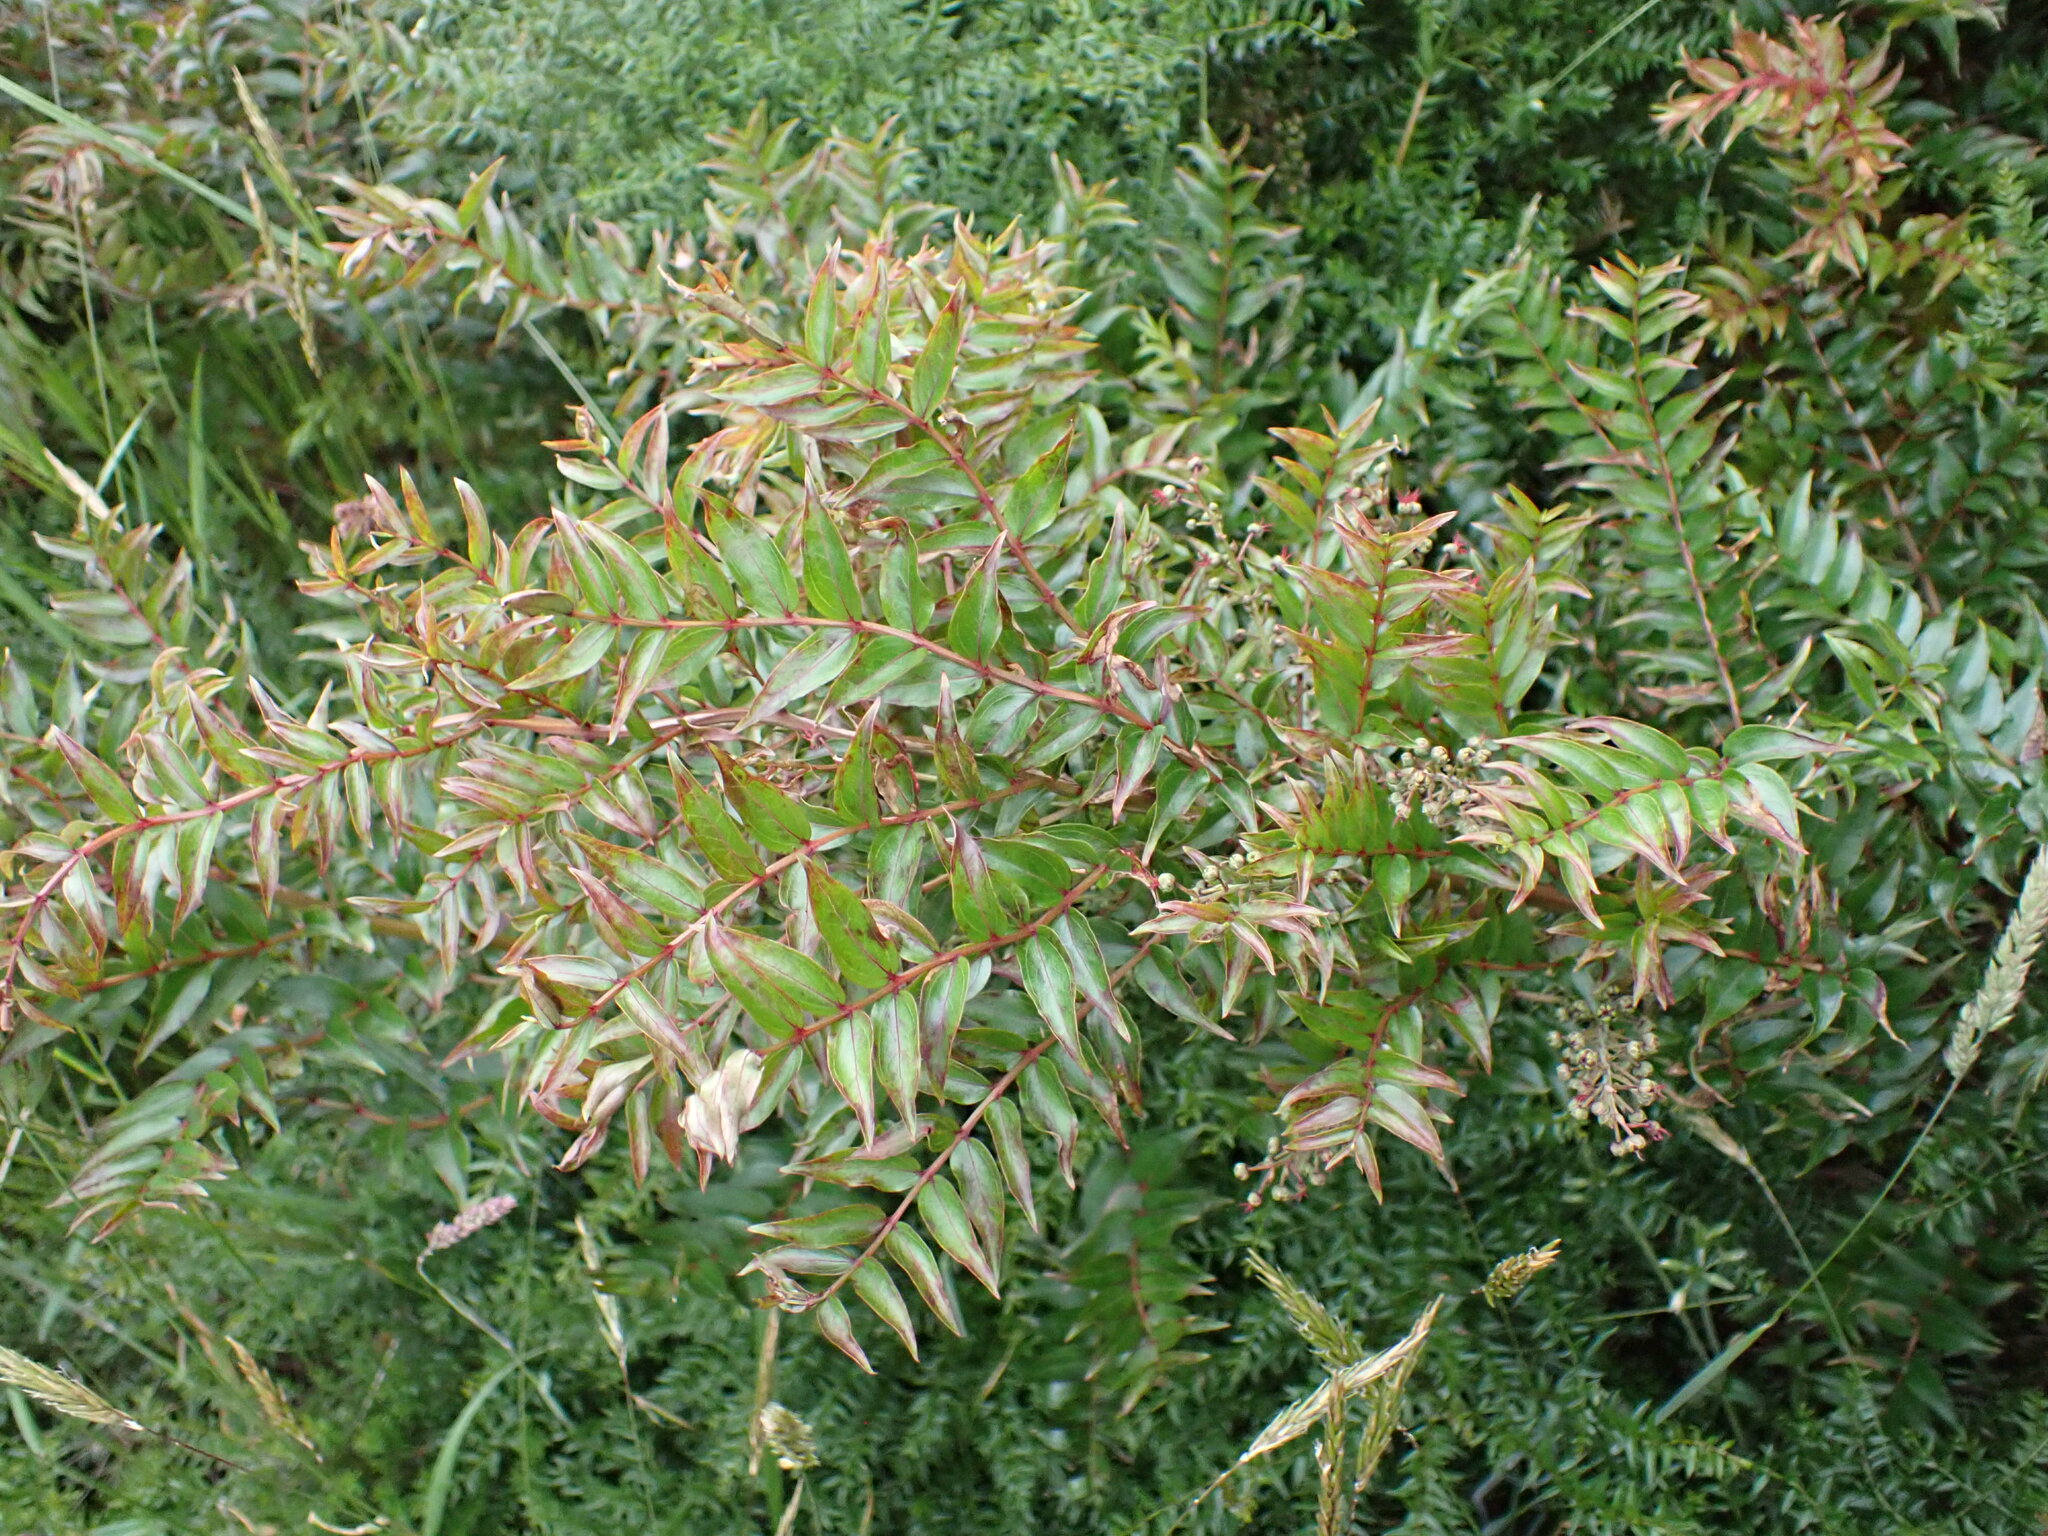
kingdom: Plantae
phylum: Tracheophyta
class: Magnoliopsida
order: Cucurbitales
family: Coriariaceae
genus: Coriaria
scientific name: Coriaria plumosa
